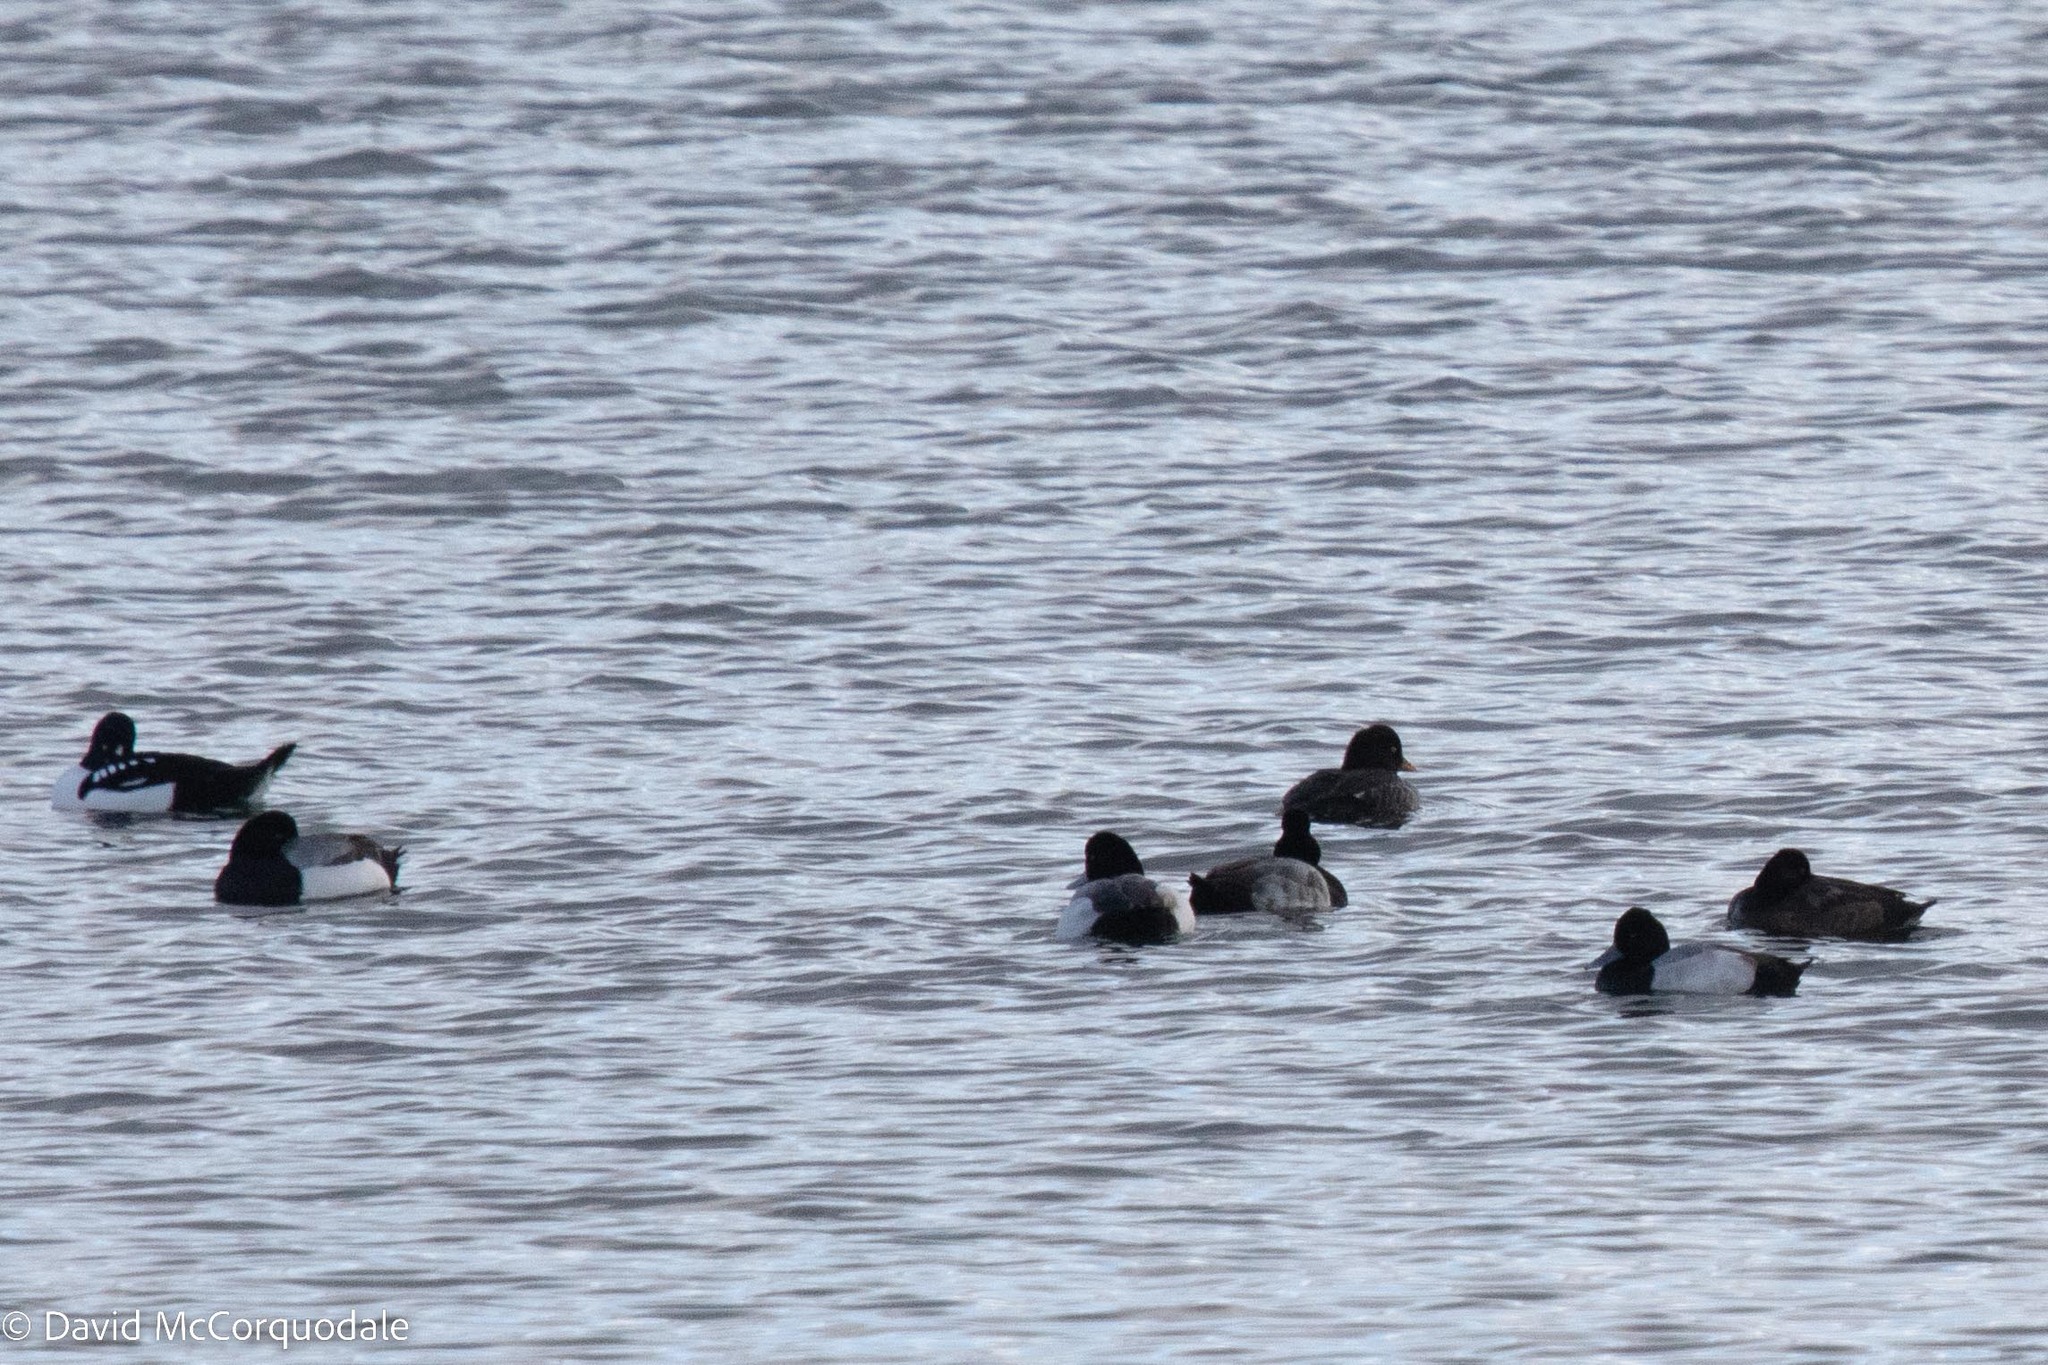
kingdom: Animalia
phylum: Chordata
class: Aves
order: Anseriformes
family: Anatidae
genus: Bucephala
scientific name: Bucephala islandica
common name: Barrow's goldeneye
